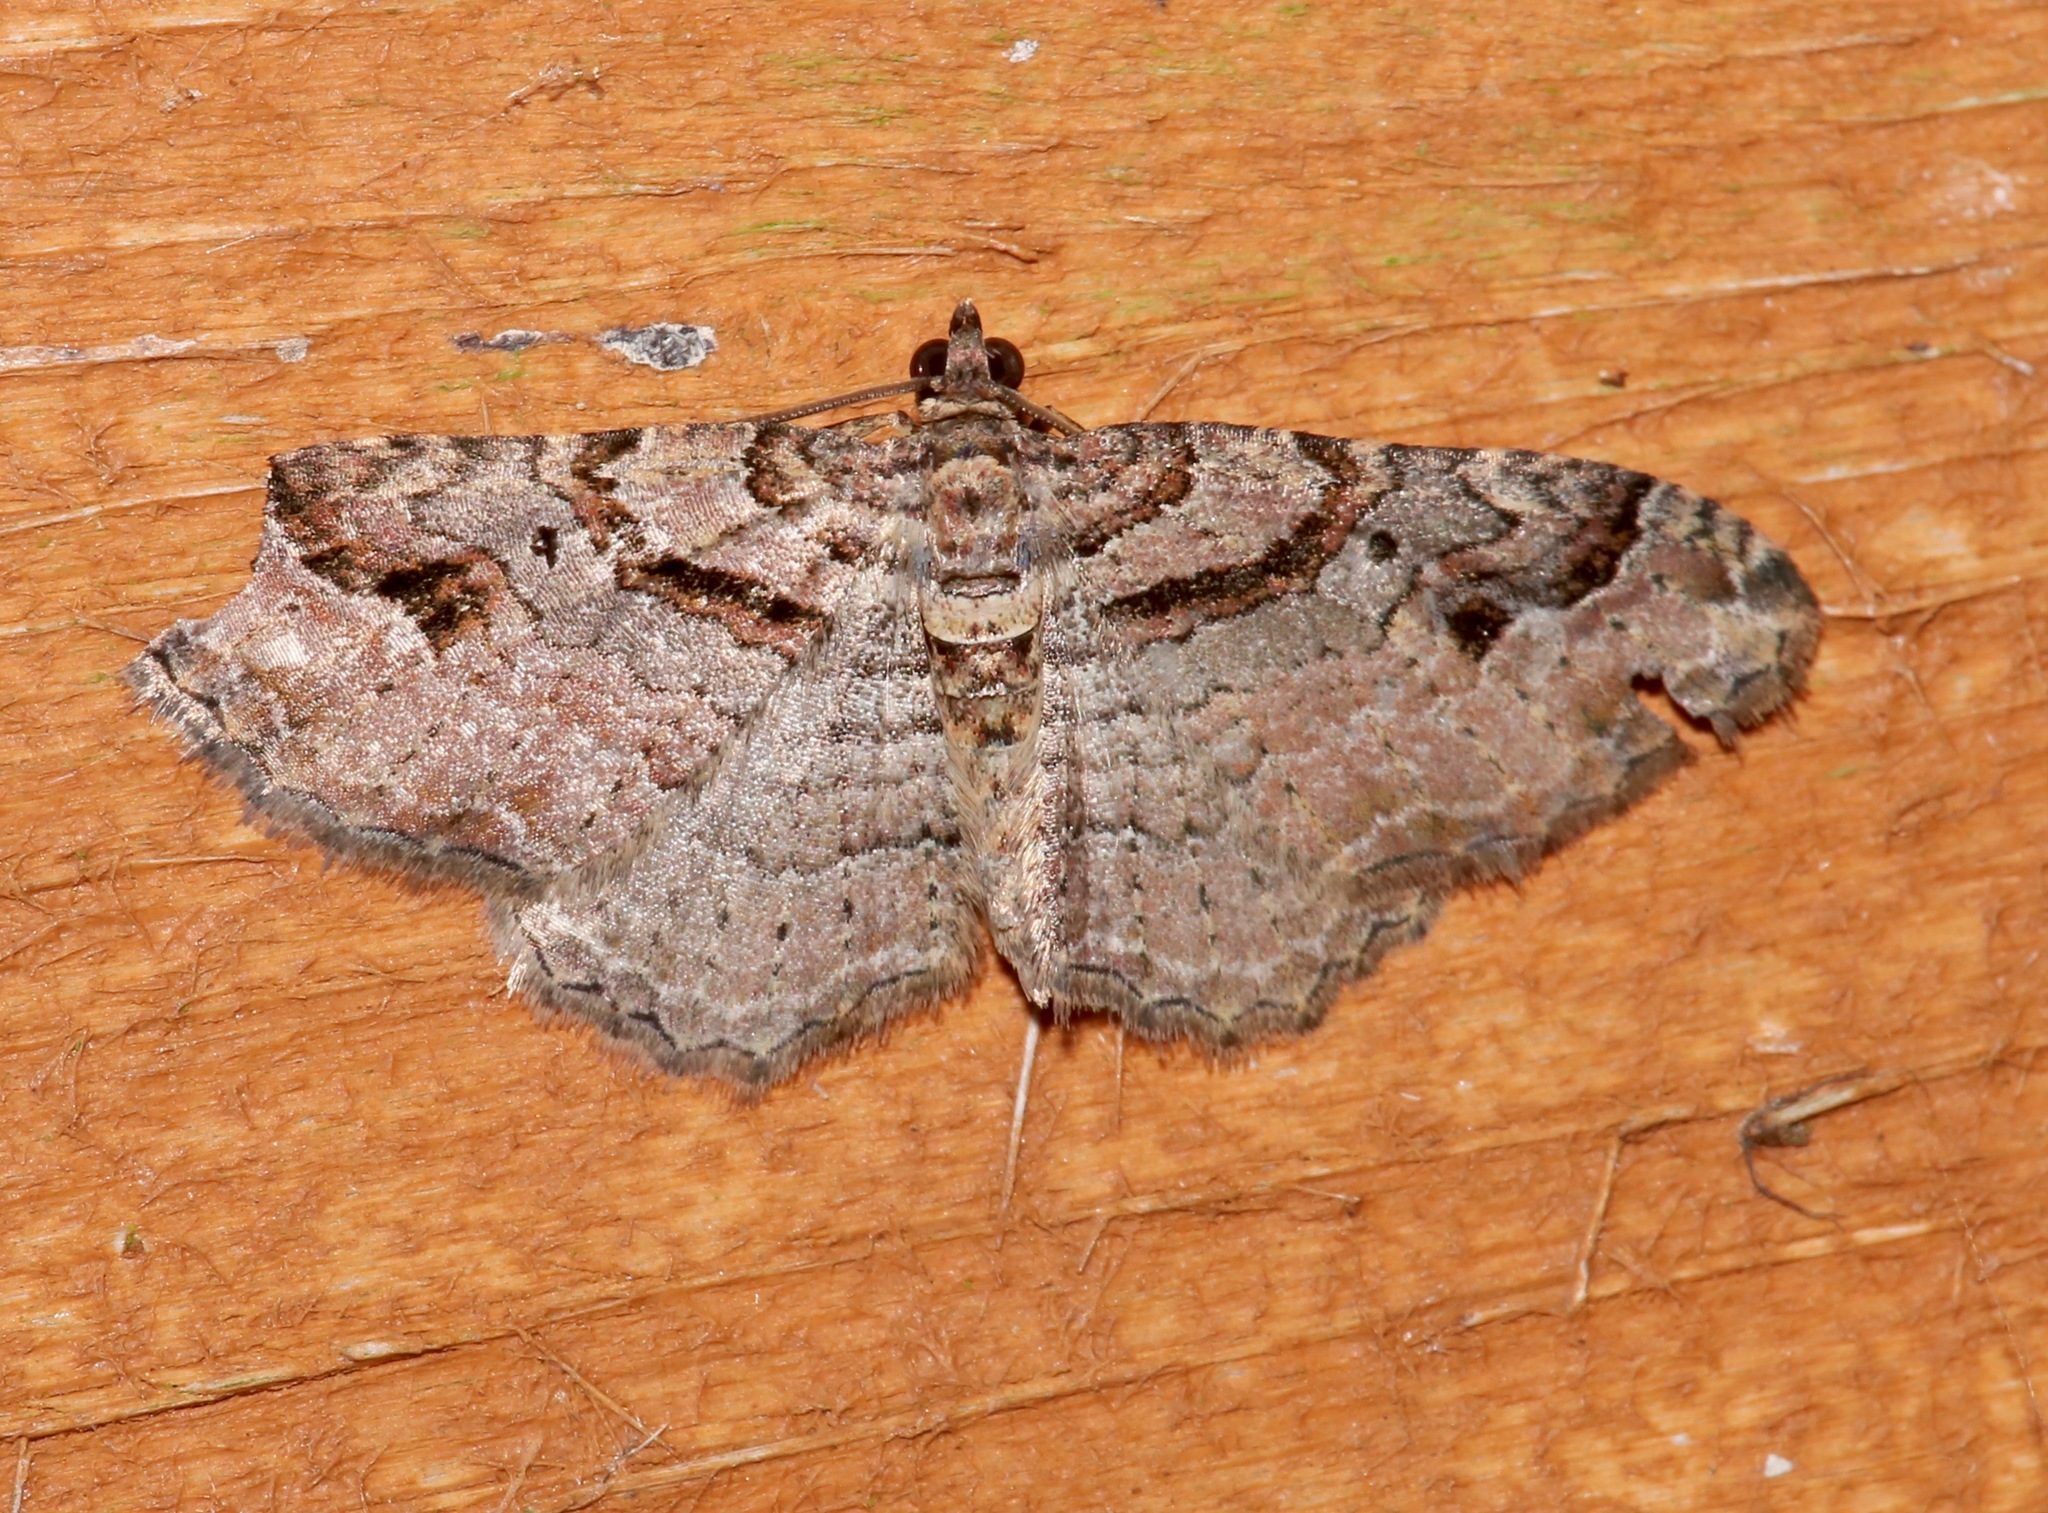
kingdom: Animalia
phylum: Arthropoda
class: Insecta
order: Lepidoptera
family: Geometridae
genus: Costaconvexa
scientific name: Costaconvexa centrostrigaria
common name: Bent-line carpet
